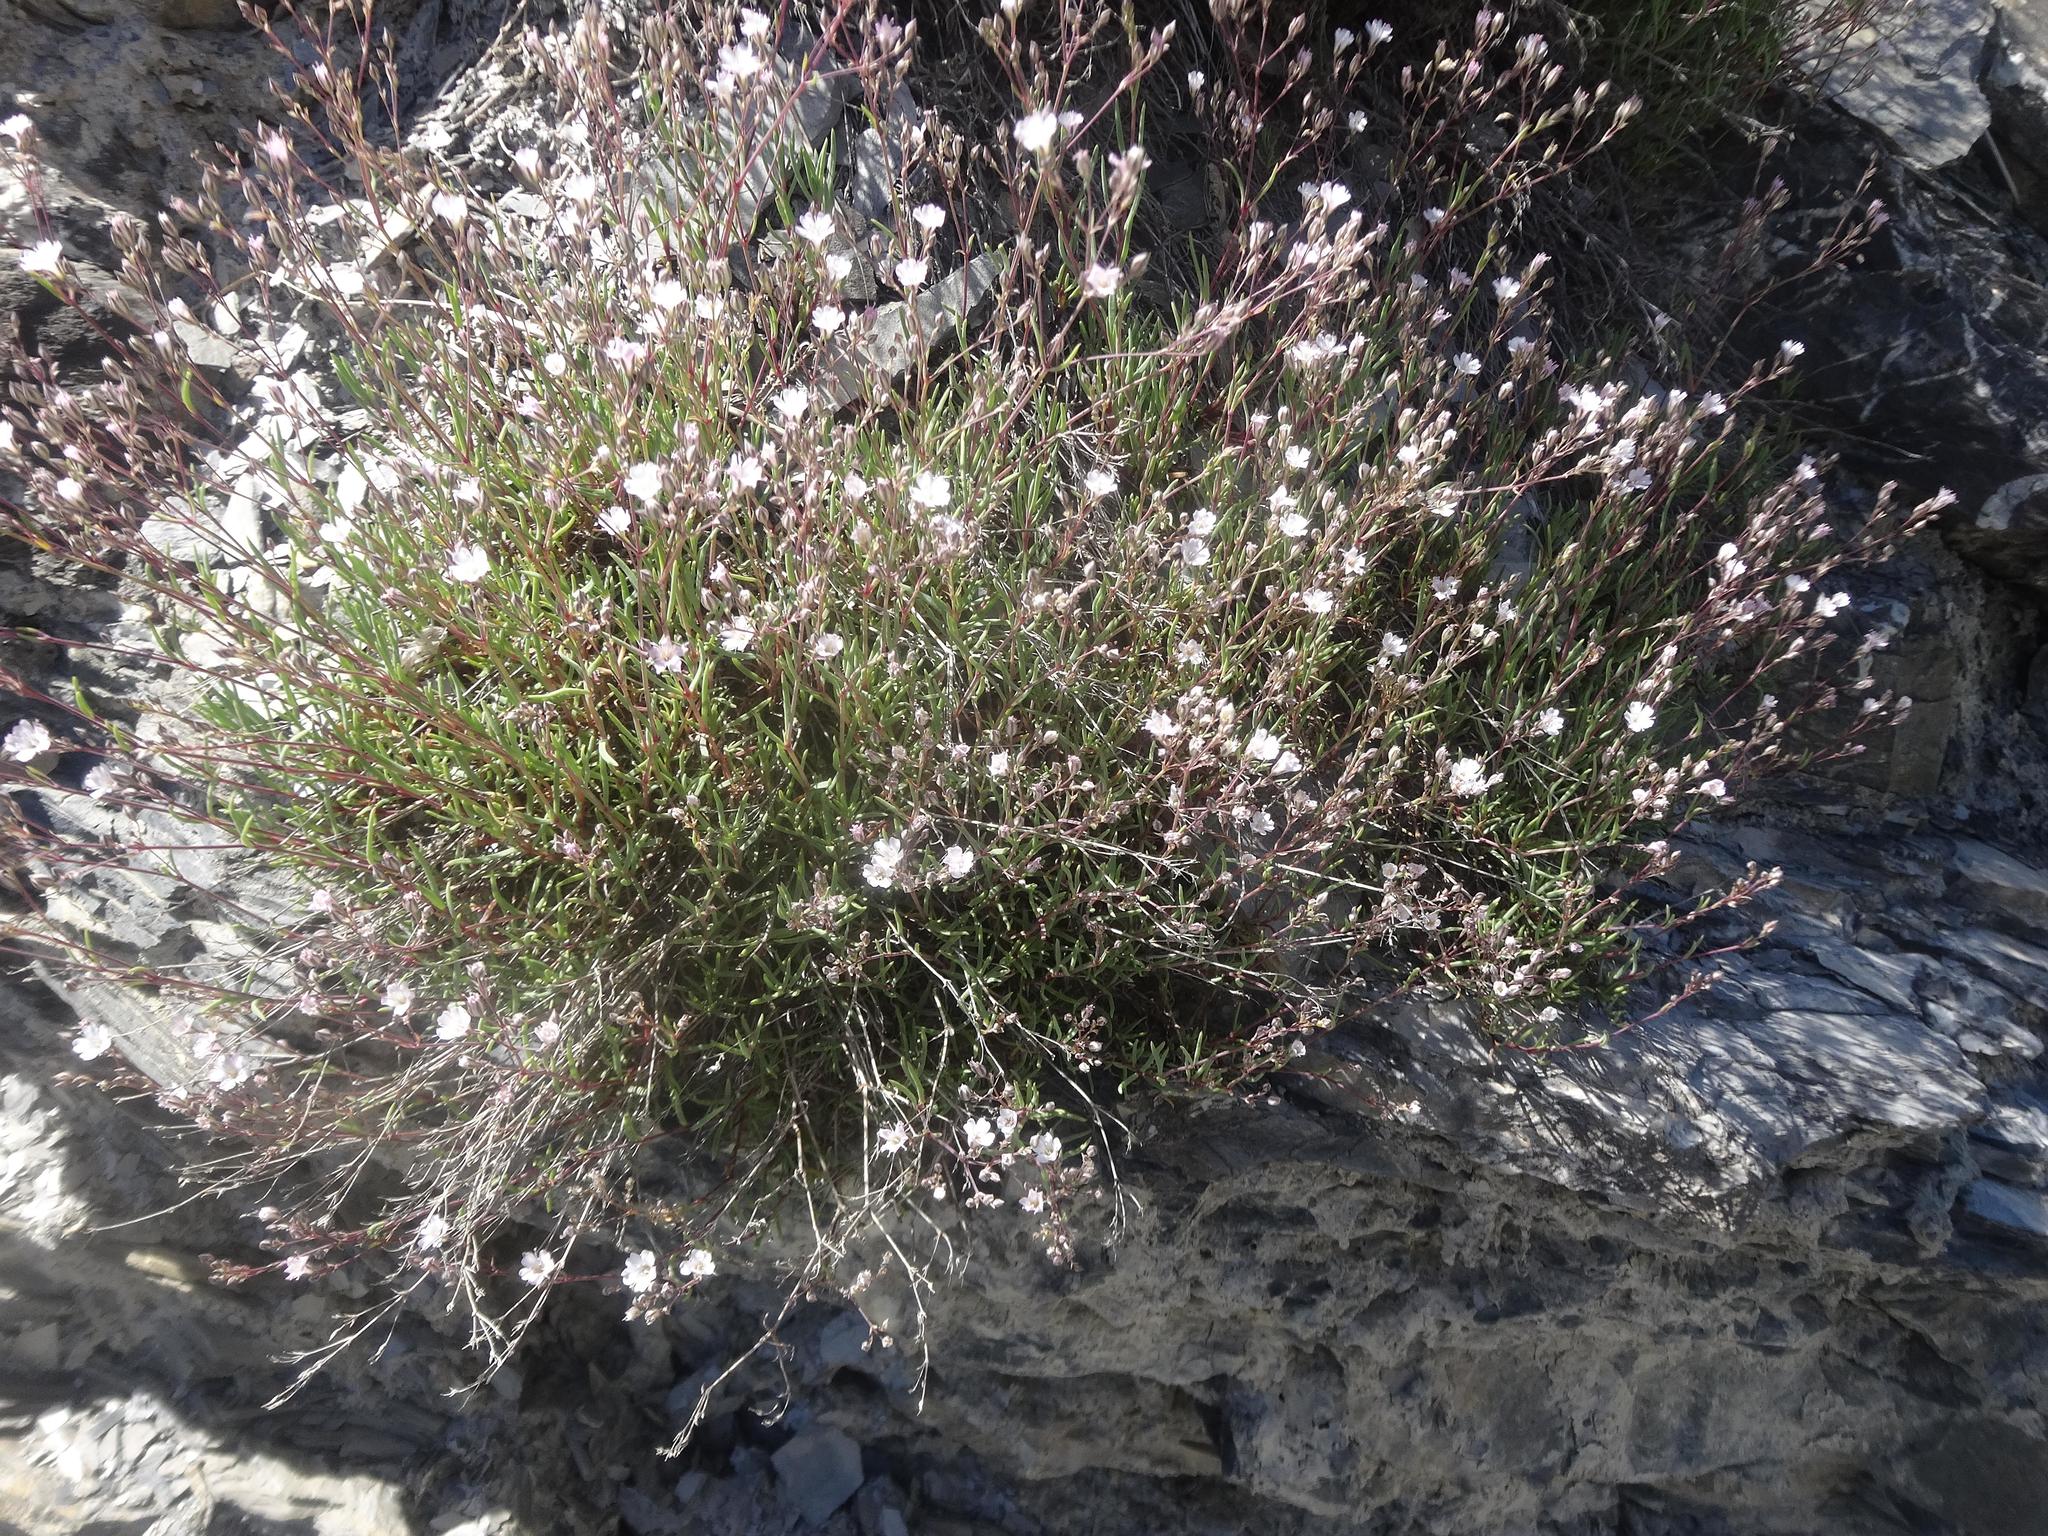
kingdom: Plantae
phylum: Tracheophyta
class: Magnoliopsida
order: Caryophyllales
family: Caryophyllaceae
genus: Gypsophila
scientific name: Gypsophila repens
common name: Creeping baby's-breath
